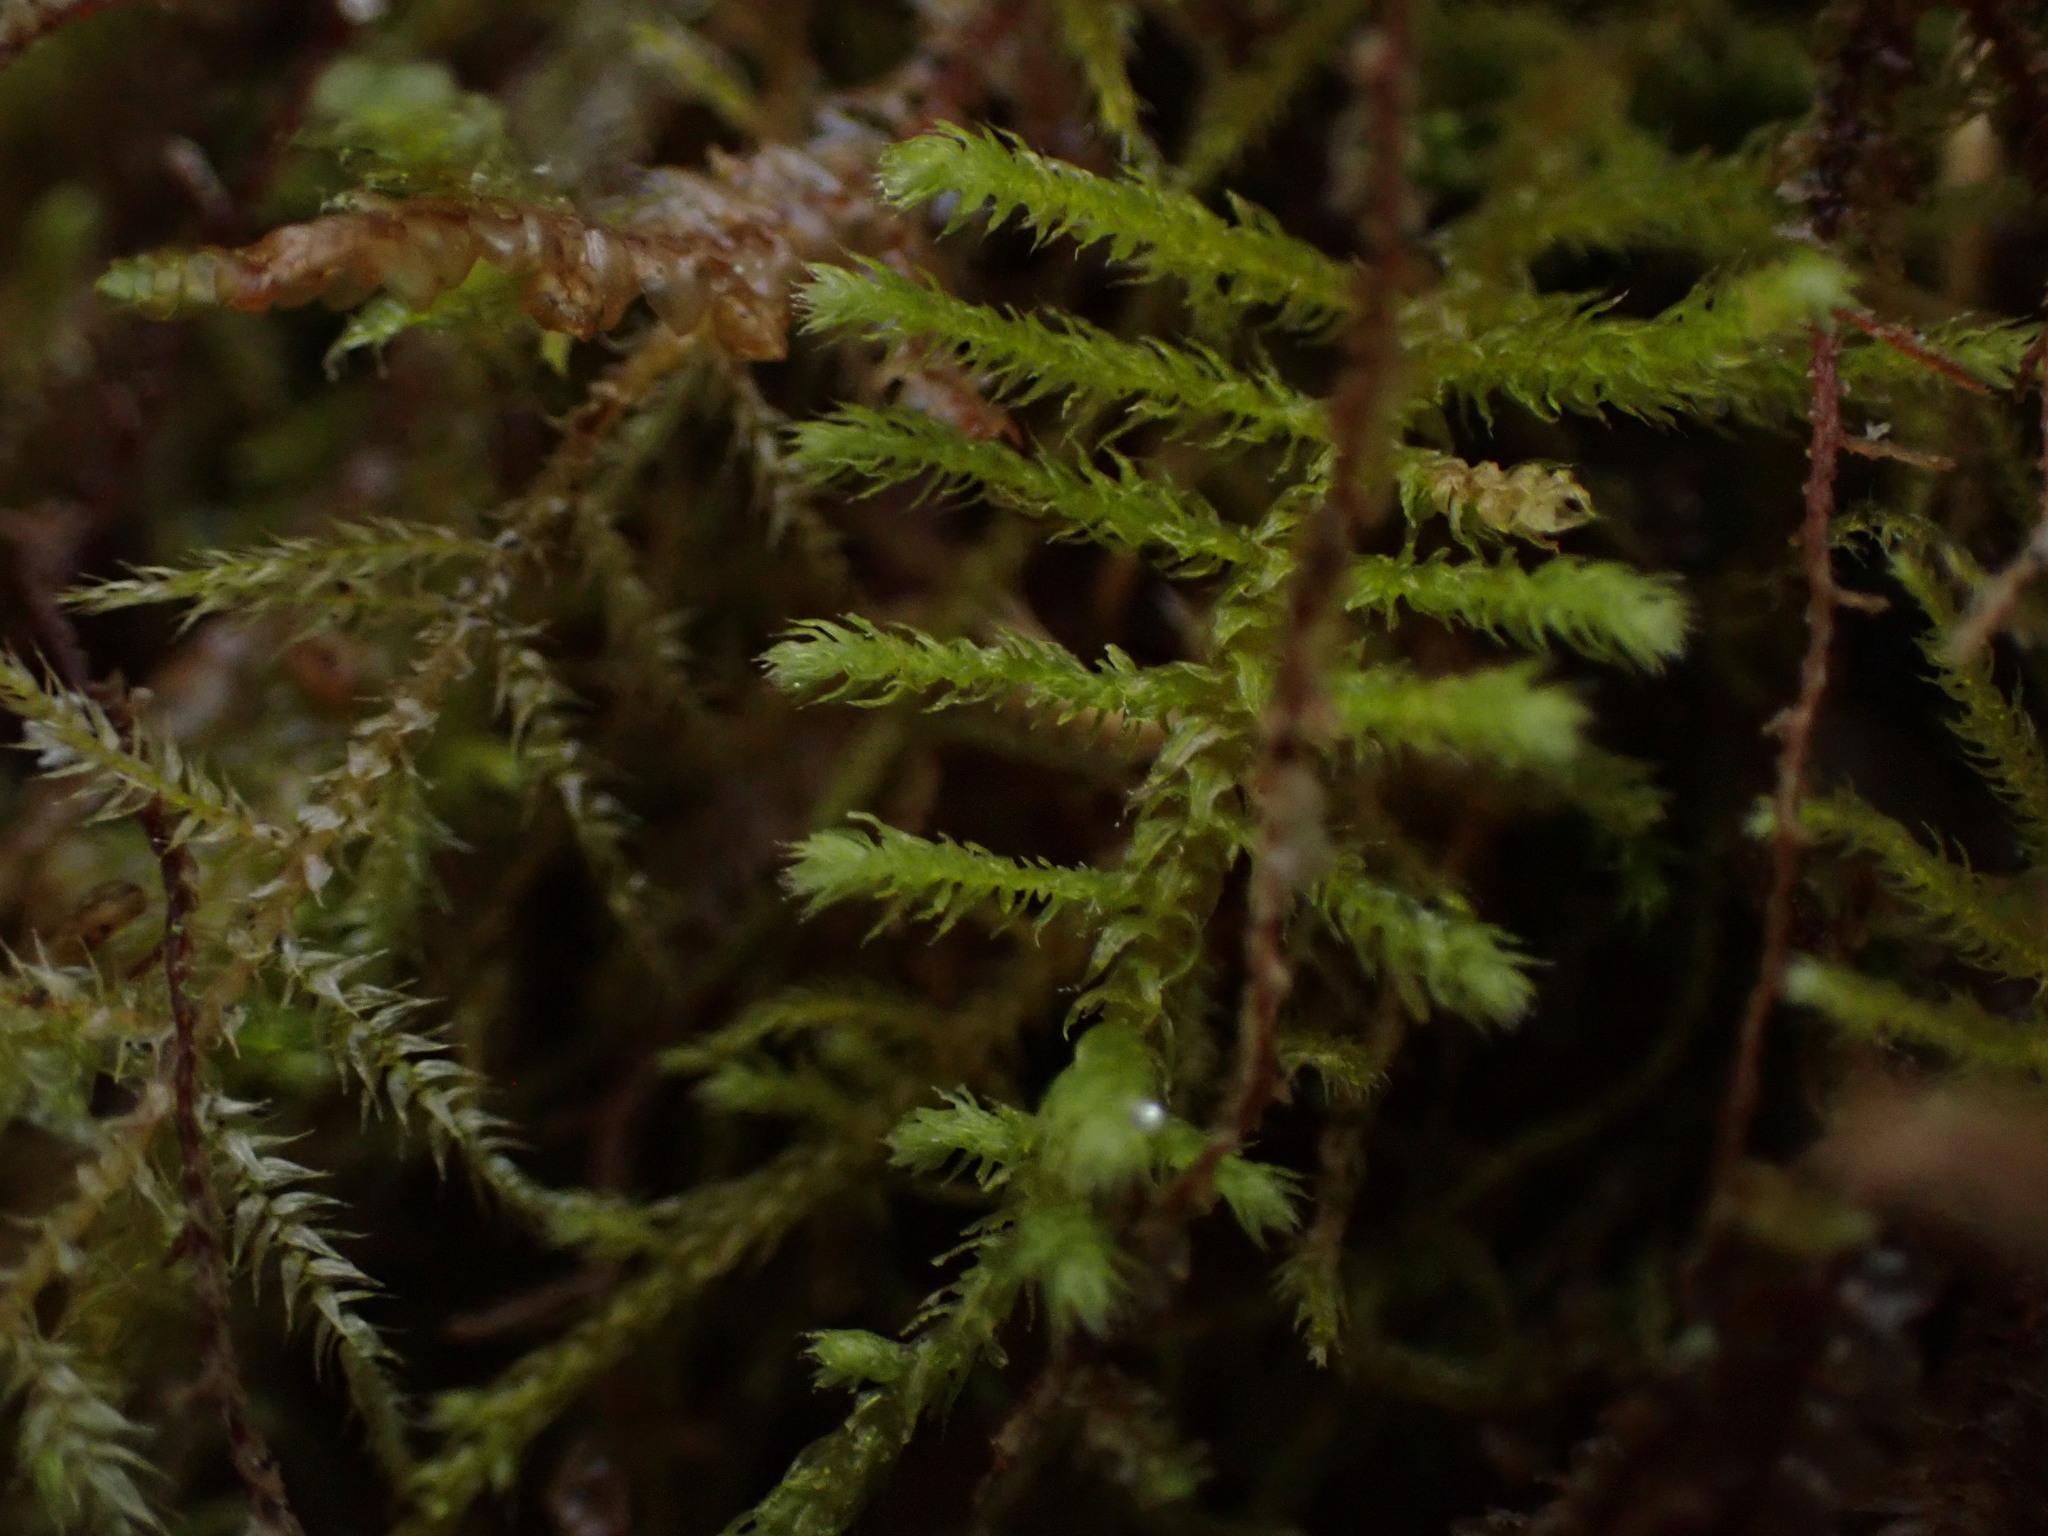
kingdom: Plantae
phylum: Bryophyta
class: Bryopsida
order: Hypnales
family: Brachytheciaceae
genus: Claopodium
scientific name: Claopodium crispifolium
